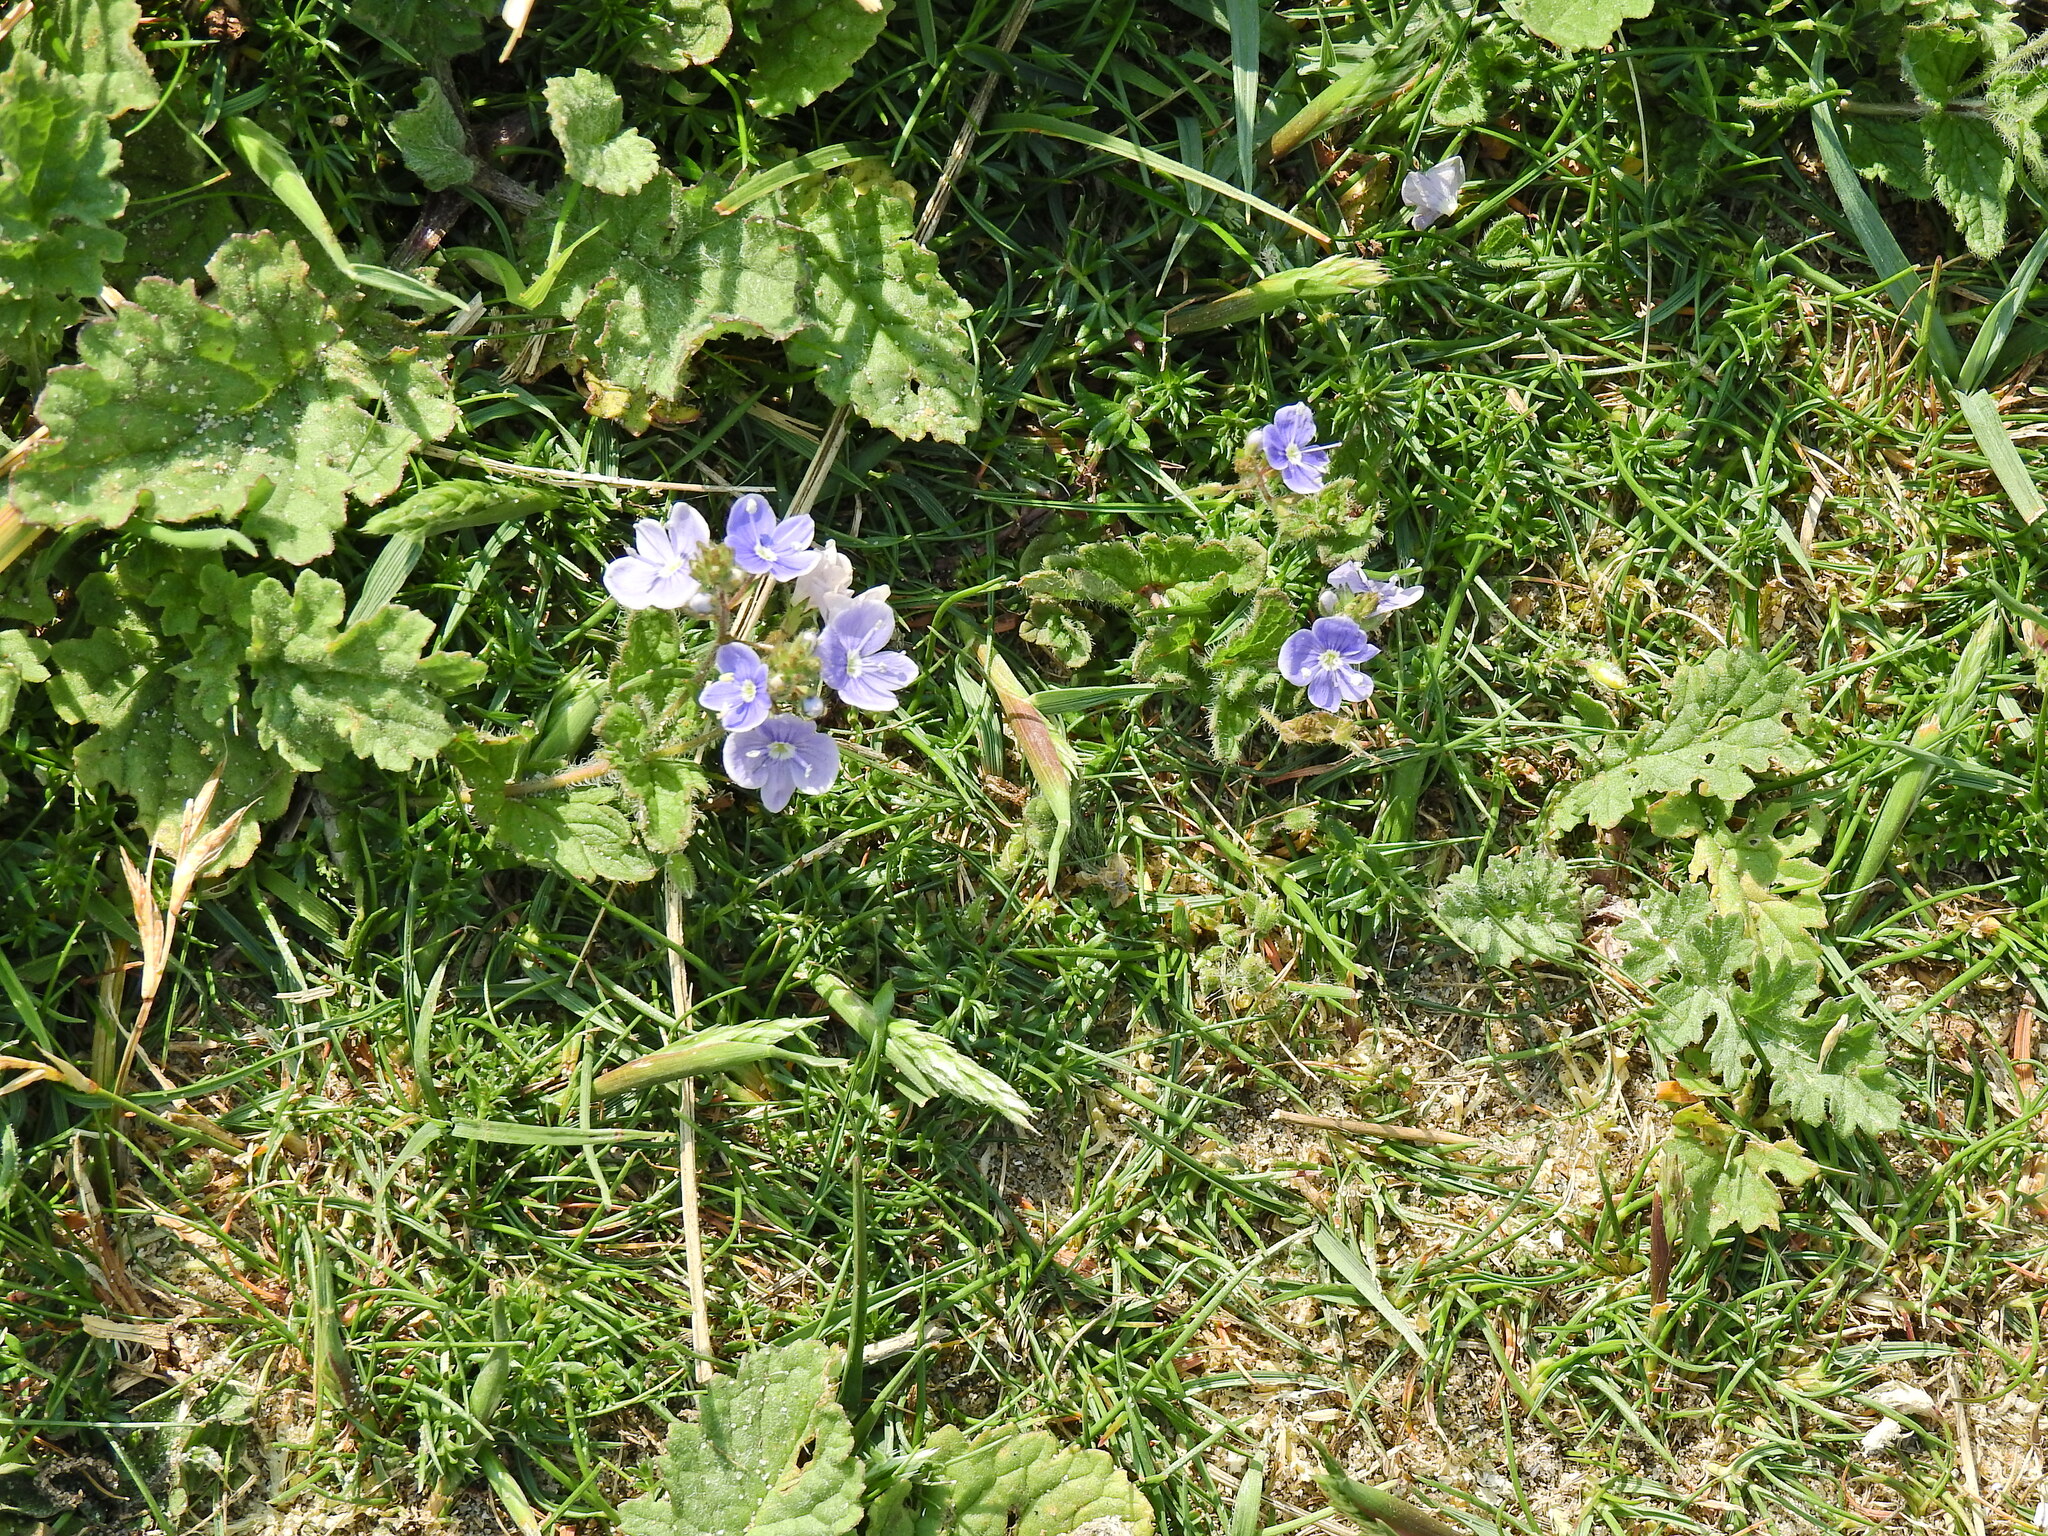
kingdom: Plantae
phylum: Tracheophyta
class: Magnoliopsida
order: Lamiales
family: Plantaginaceae
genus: Veronica
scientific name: Veronica chamaedrys
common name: Germander speedwell
